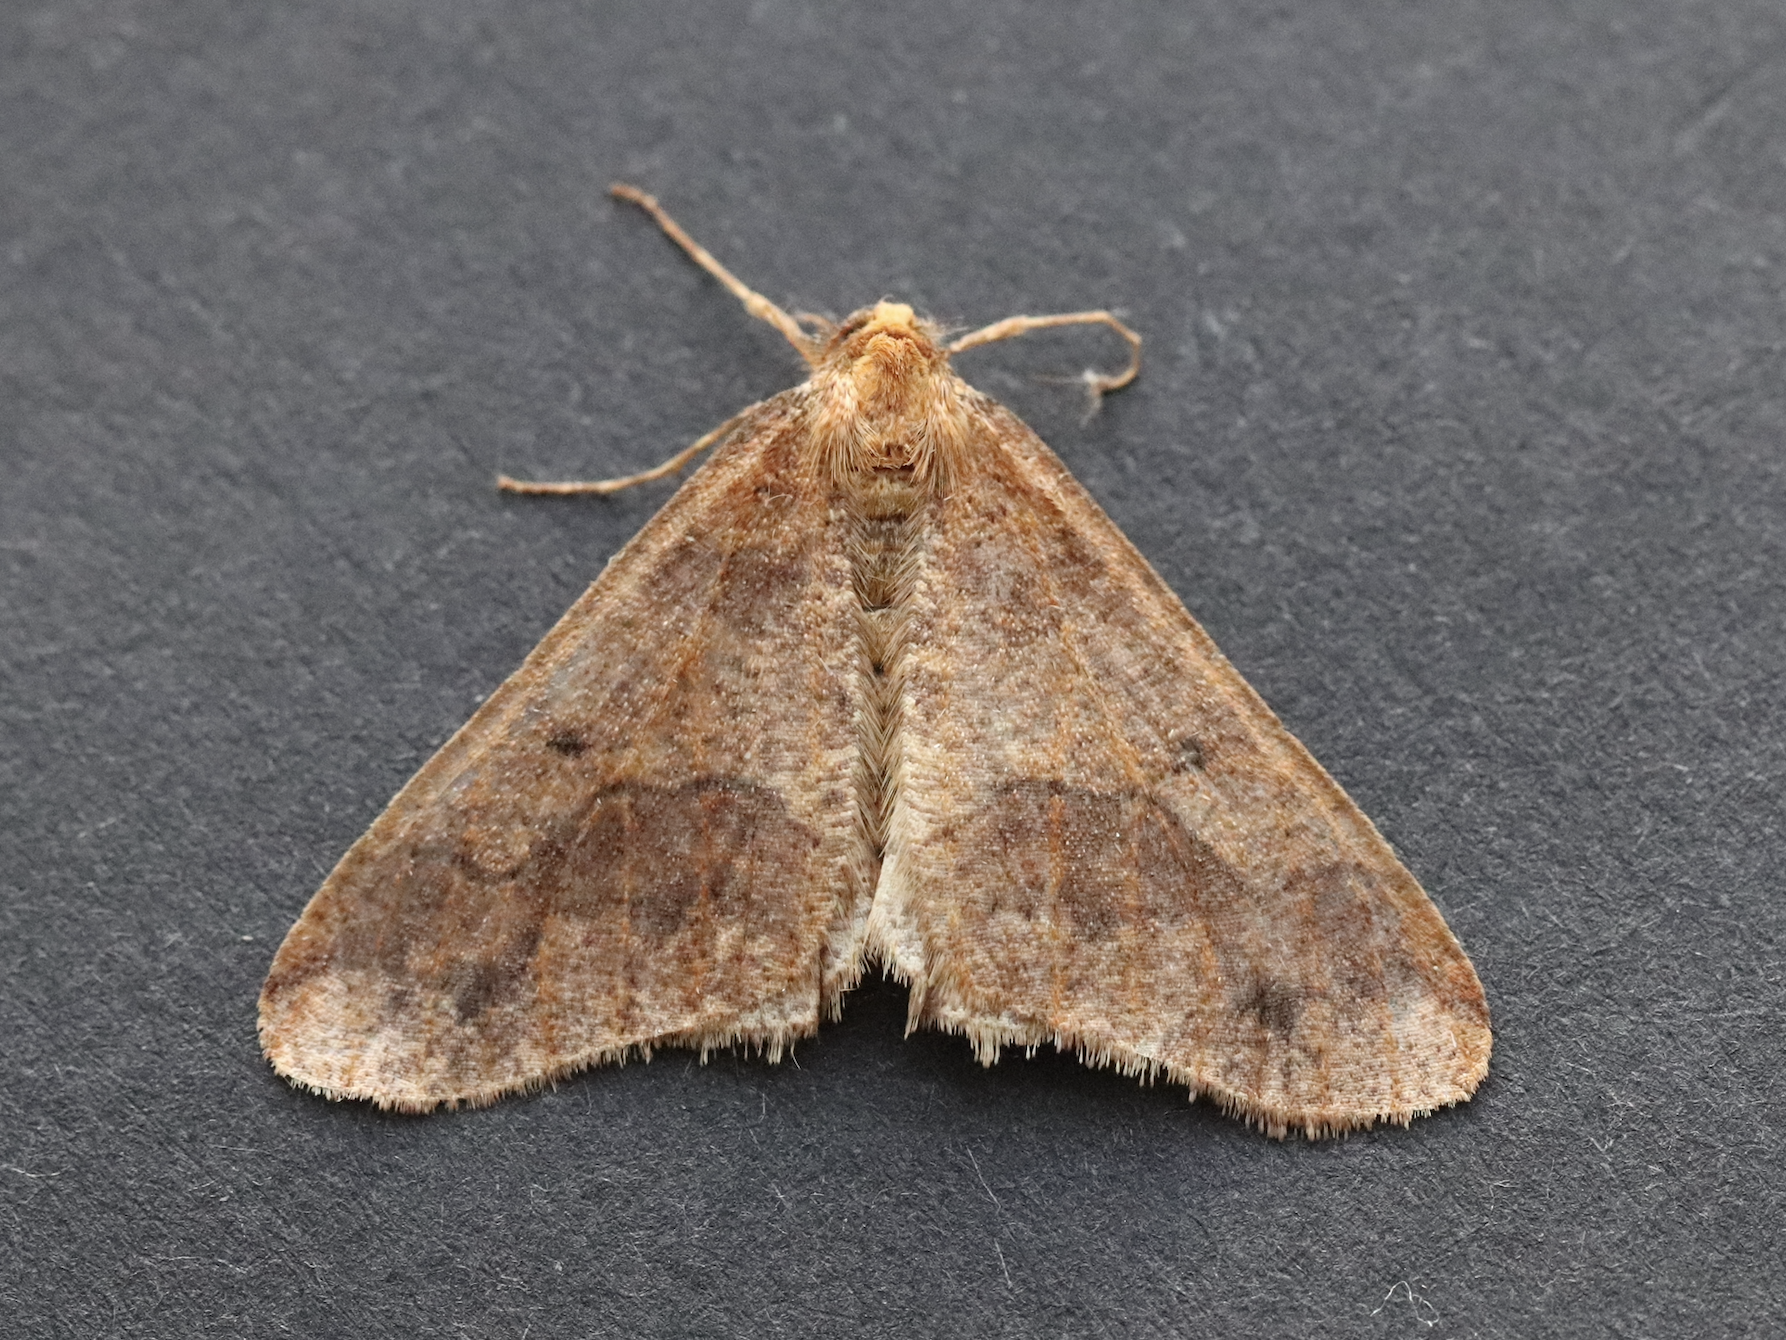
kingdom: Animalia
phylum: Arthropoda
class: Insecta
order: Lepidoptera
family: Geometridae
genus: Erannis
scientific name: Erannis defoliaria
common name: Mottled umber
